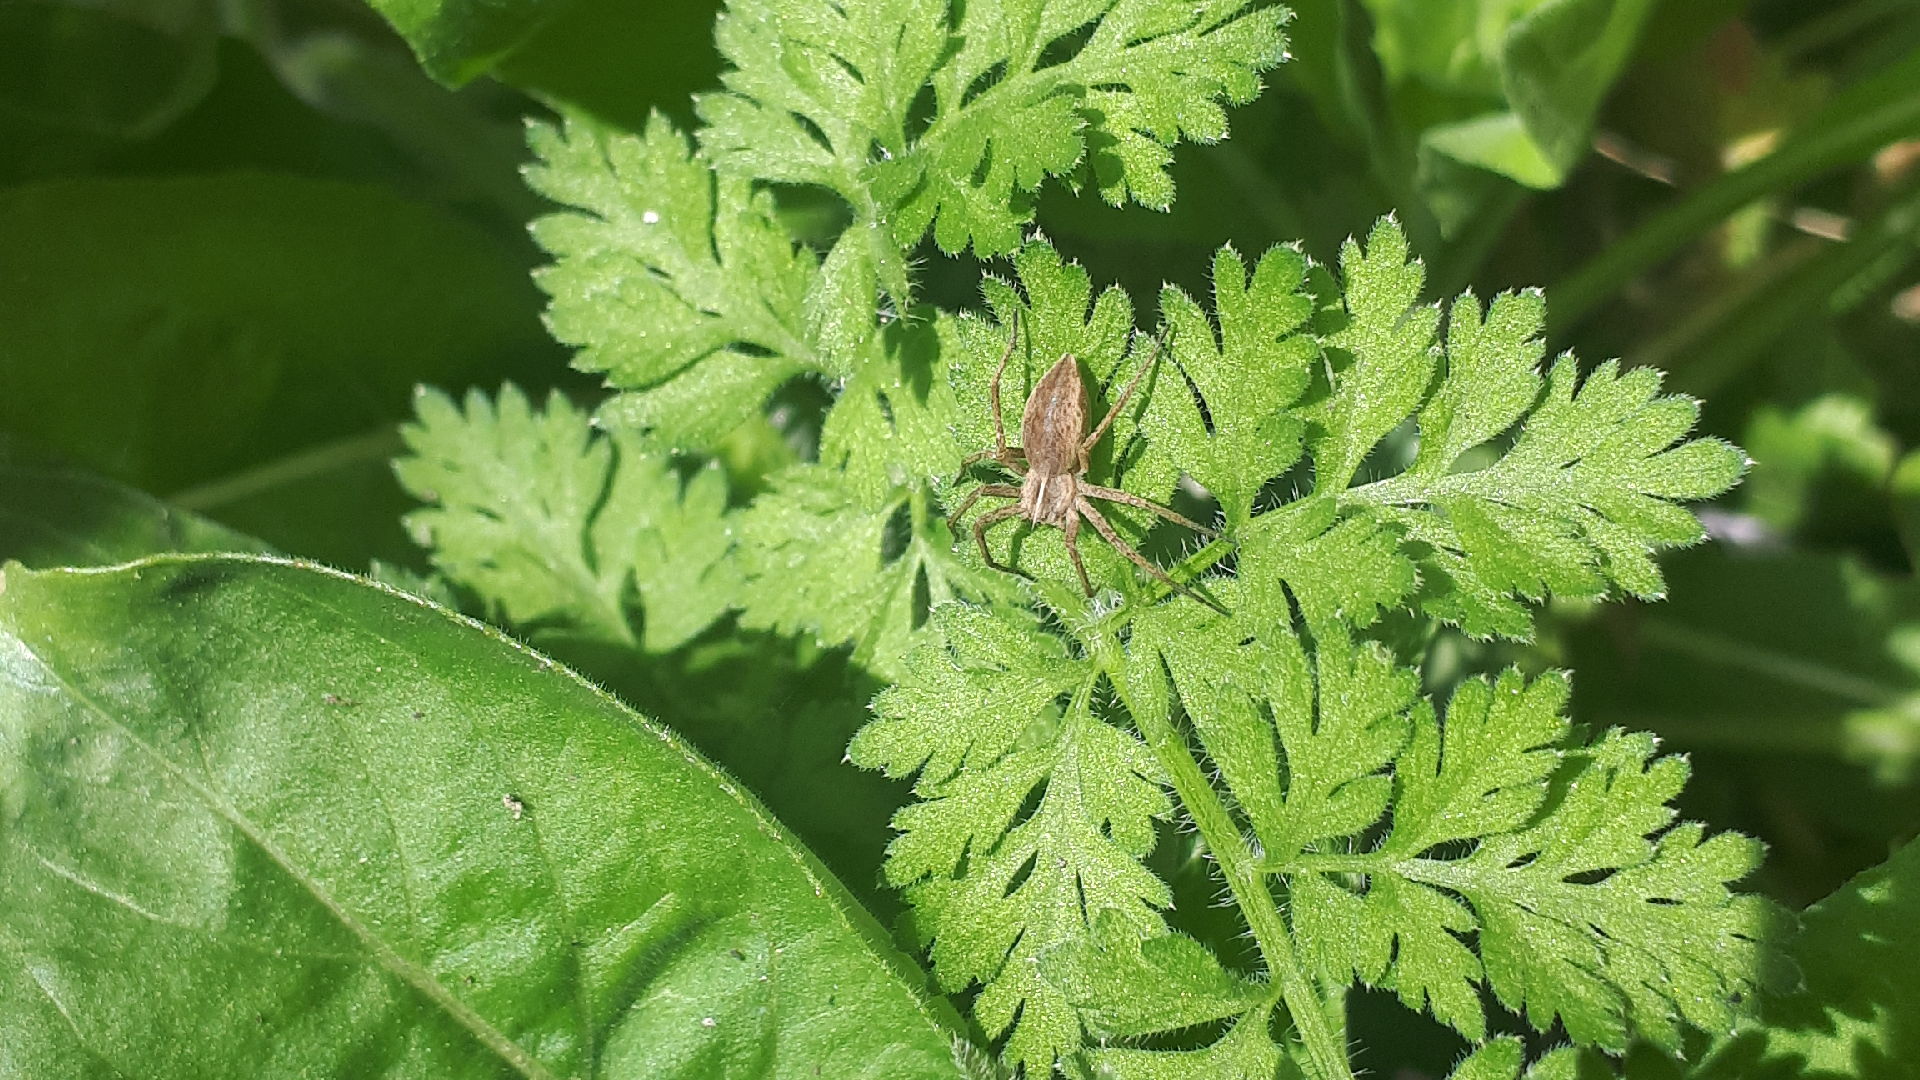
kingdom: Animalia
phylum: Arthropoda
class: Arachnida
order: Araneae
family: Pisauridae
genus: Pisaura
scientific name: Pisaura mirabilis
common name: Tent spider
